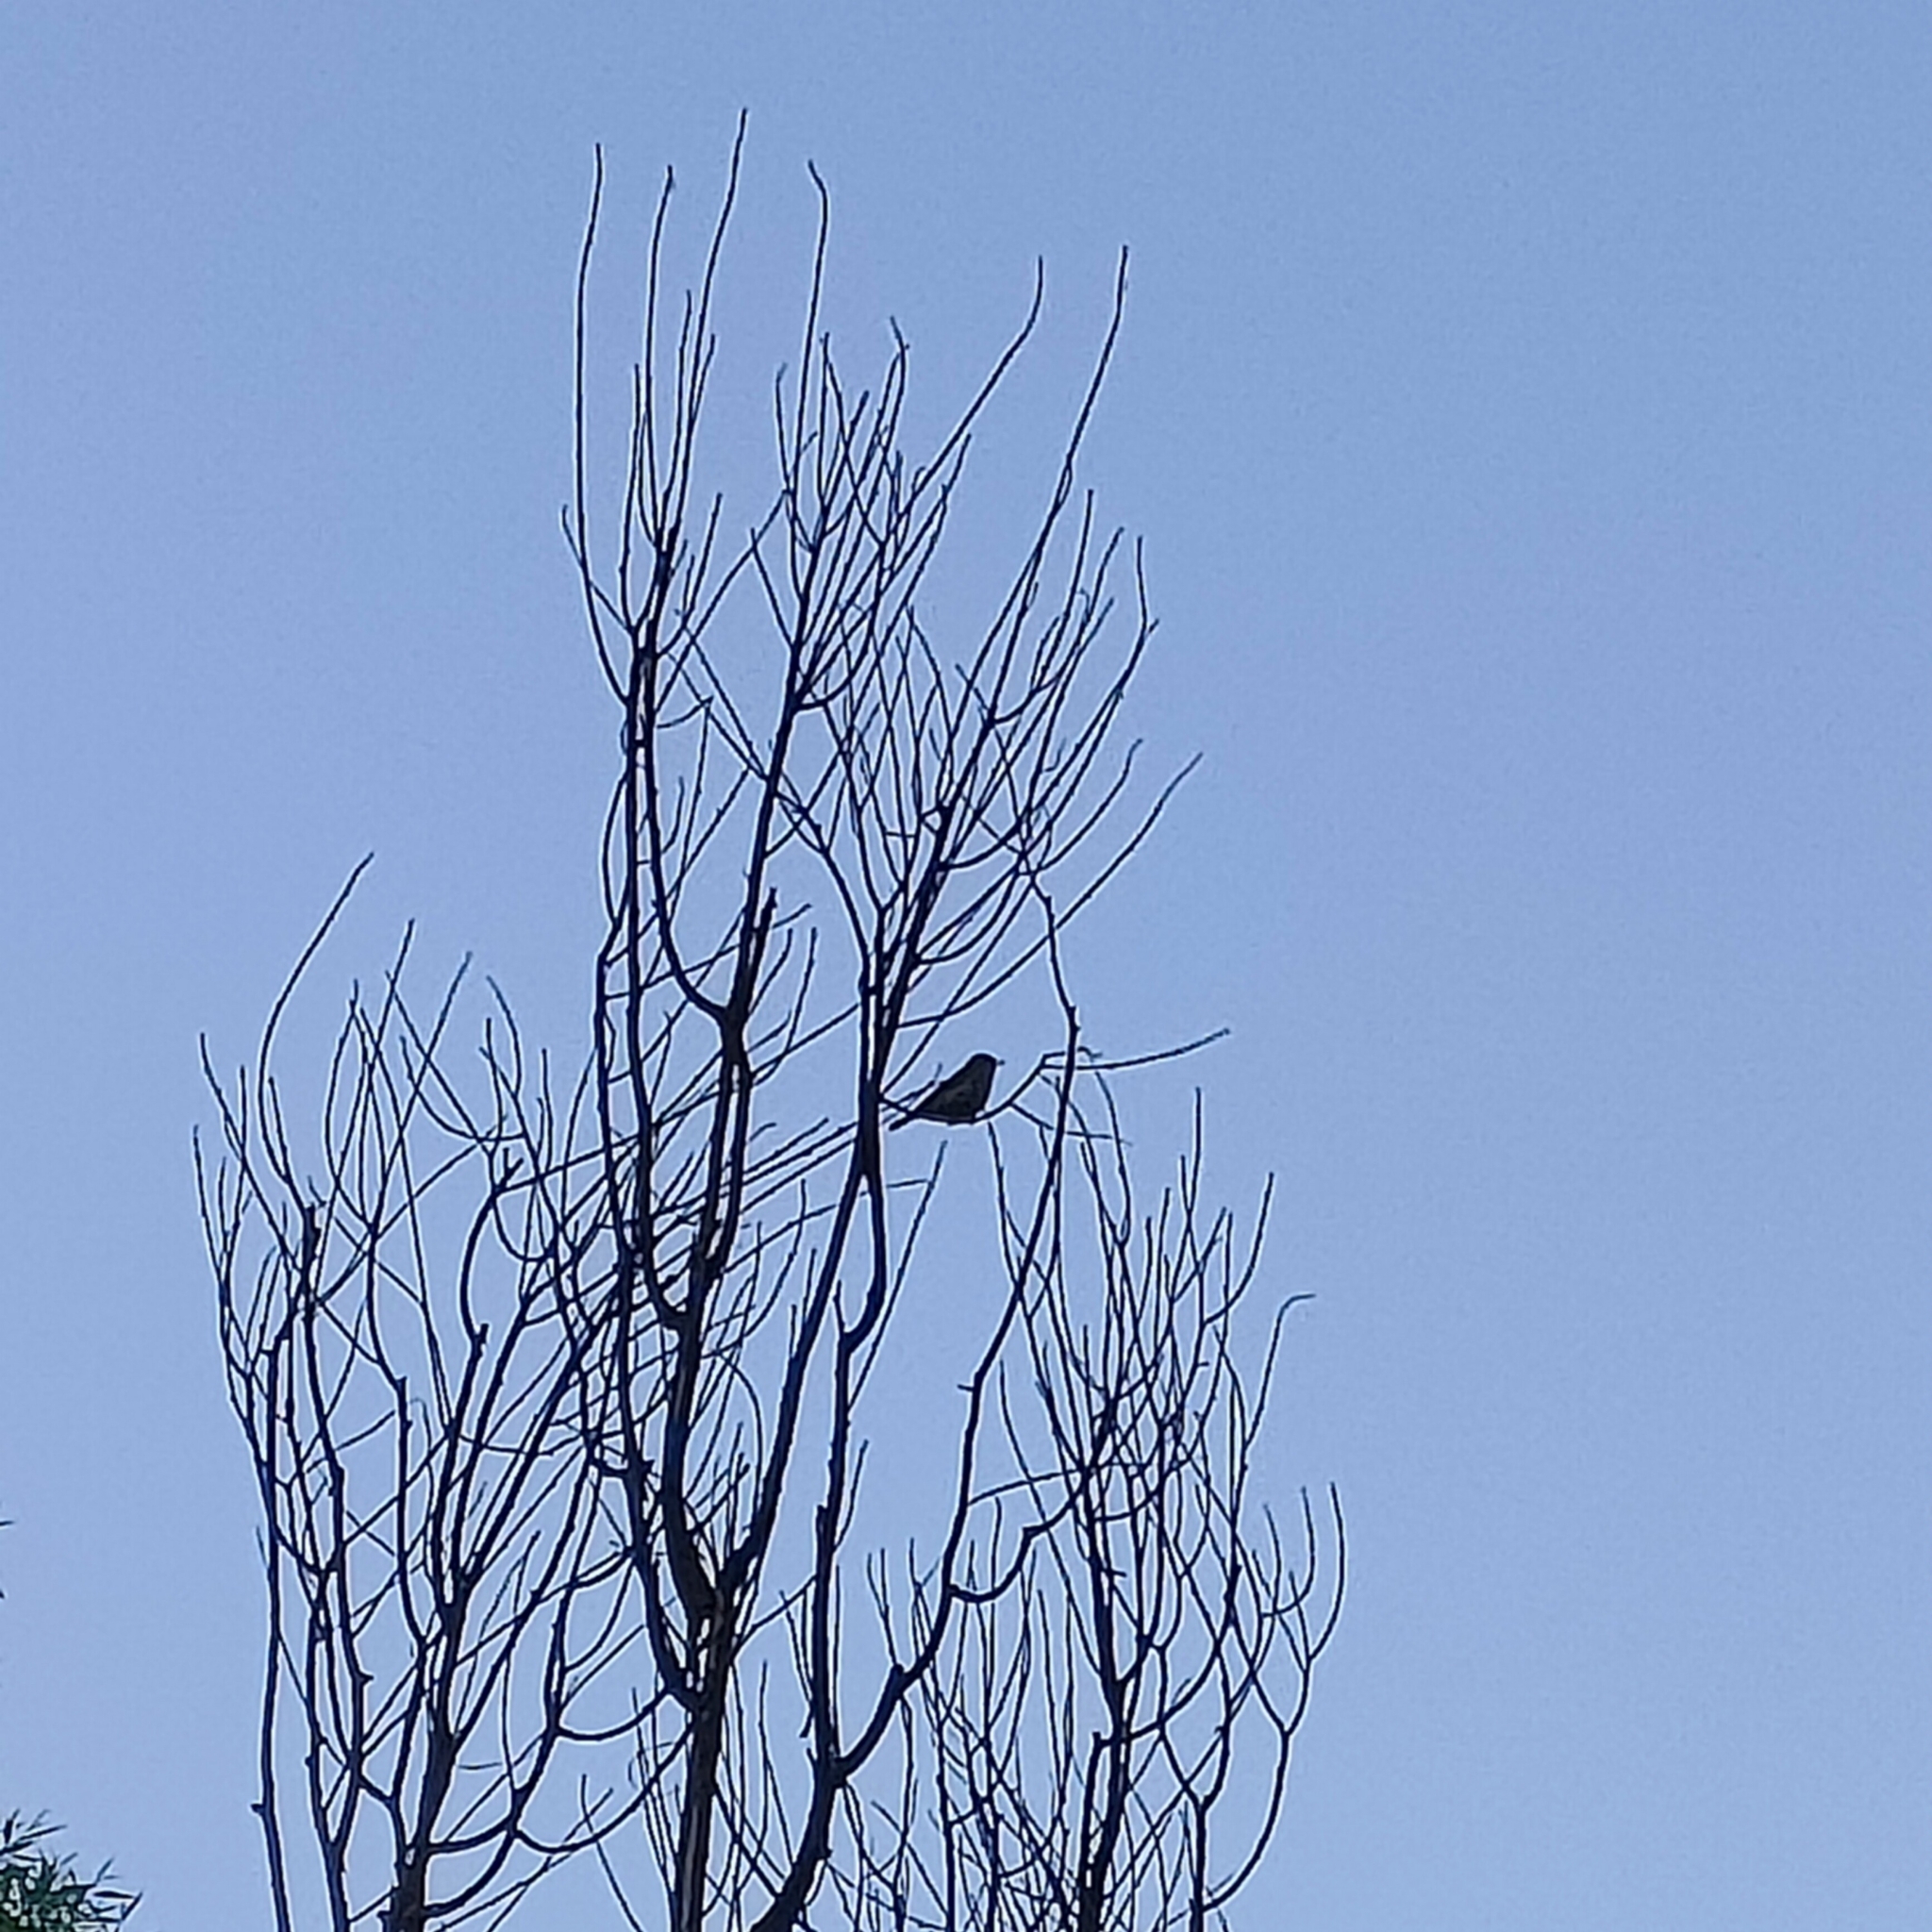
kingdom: Animalia
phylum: Chordata
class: Aves
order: Passeriformes
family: Phylloscopidae
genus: Phylloscopus
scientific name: Phylloscopus collybita
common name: Common chiffchaff
